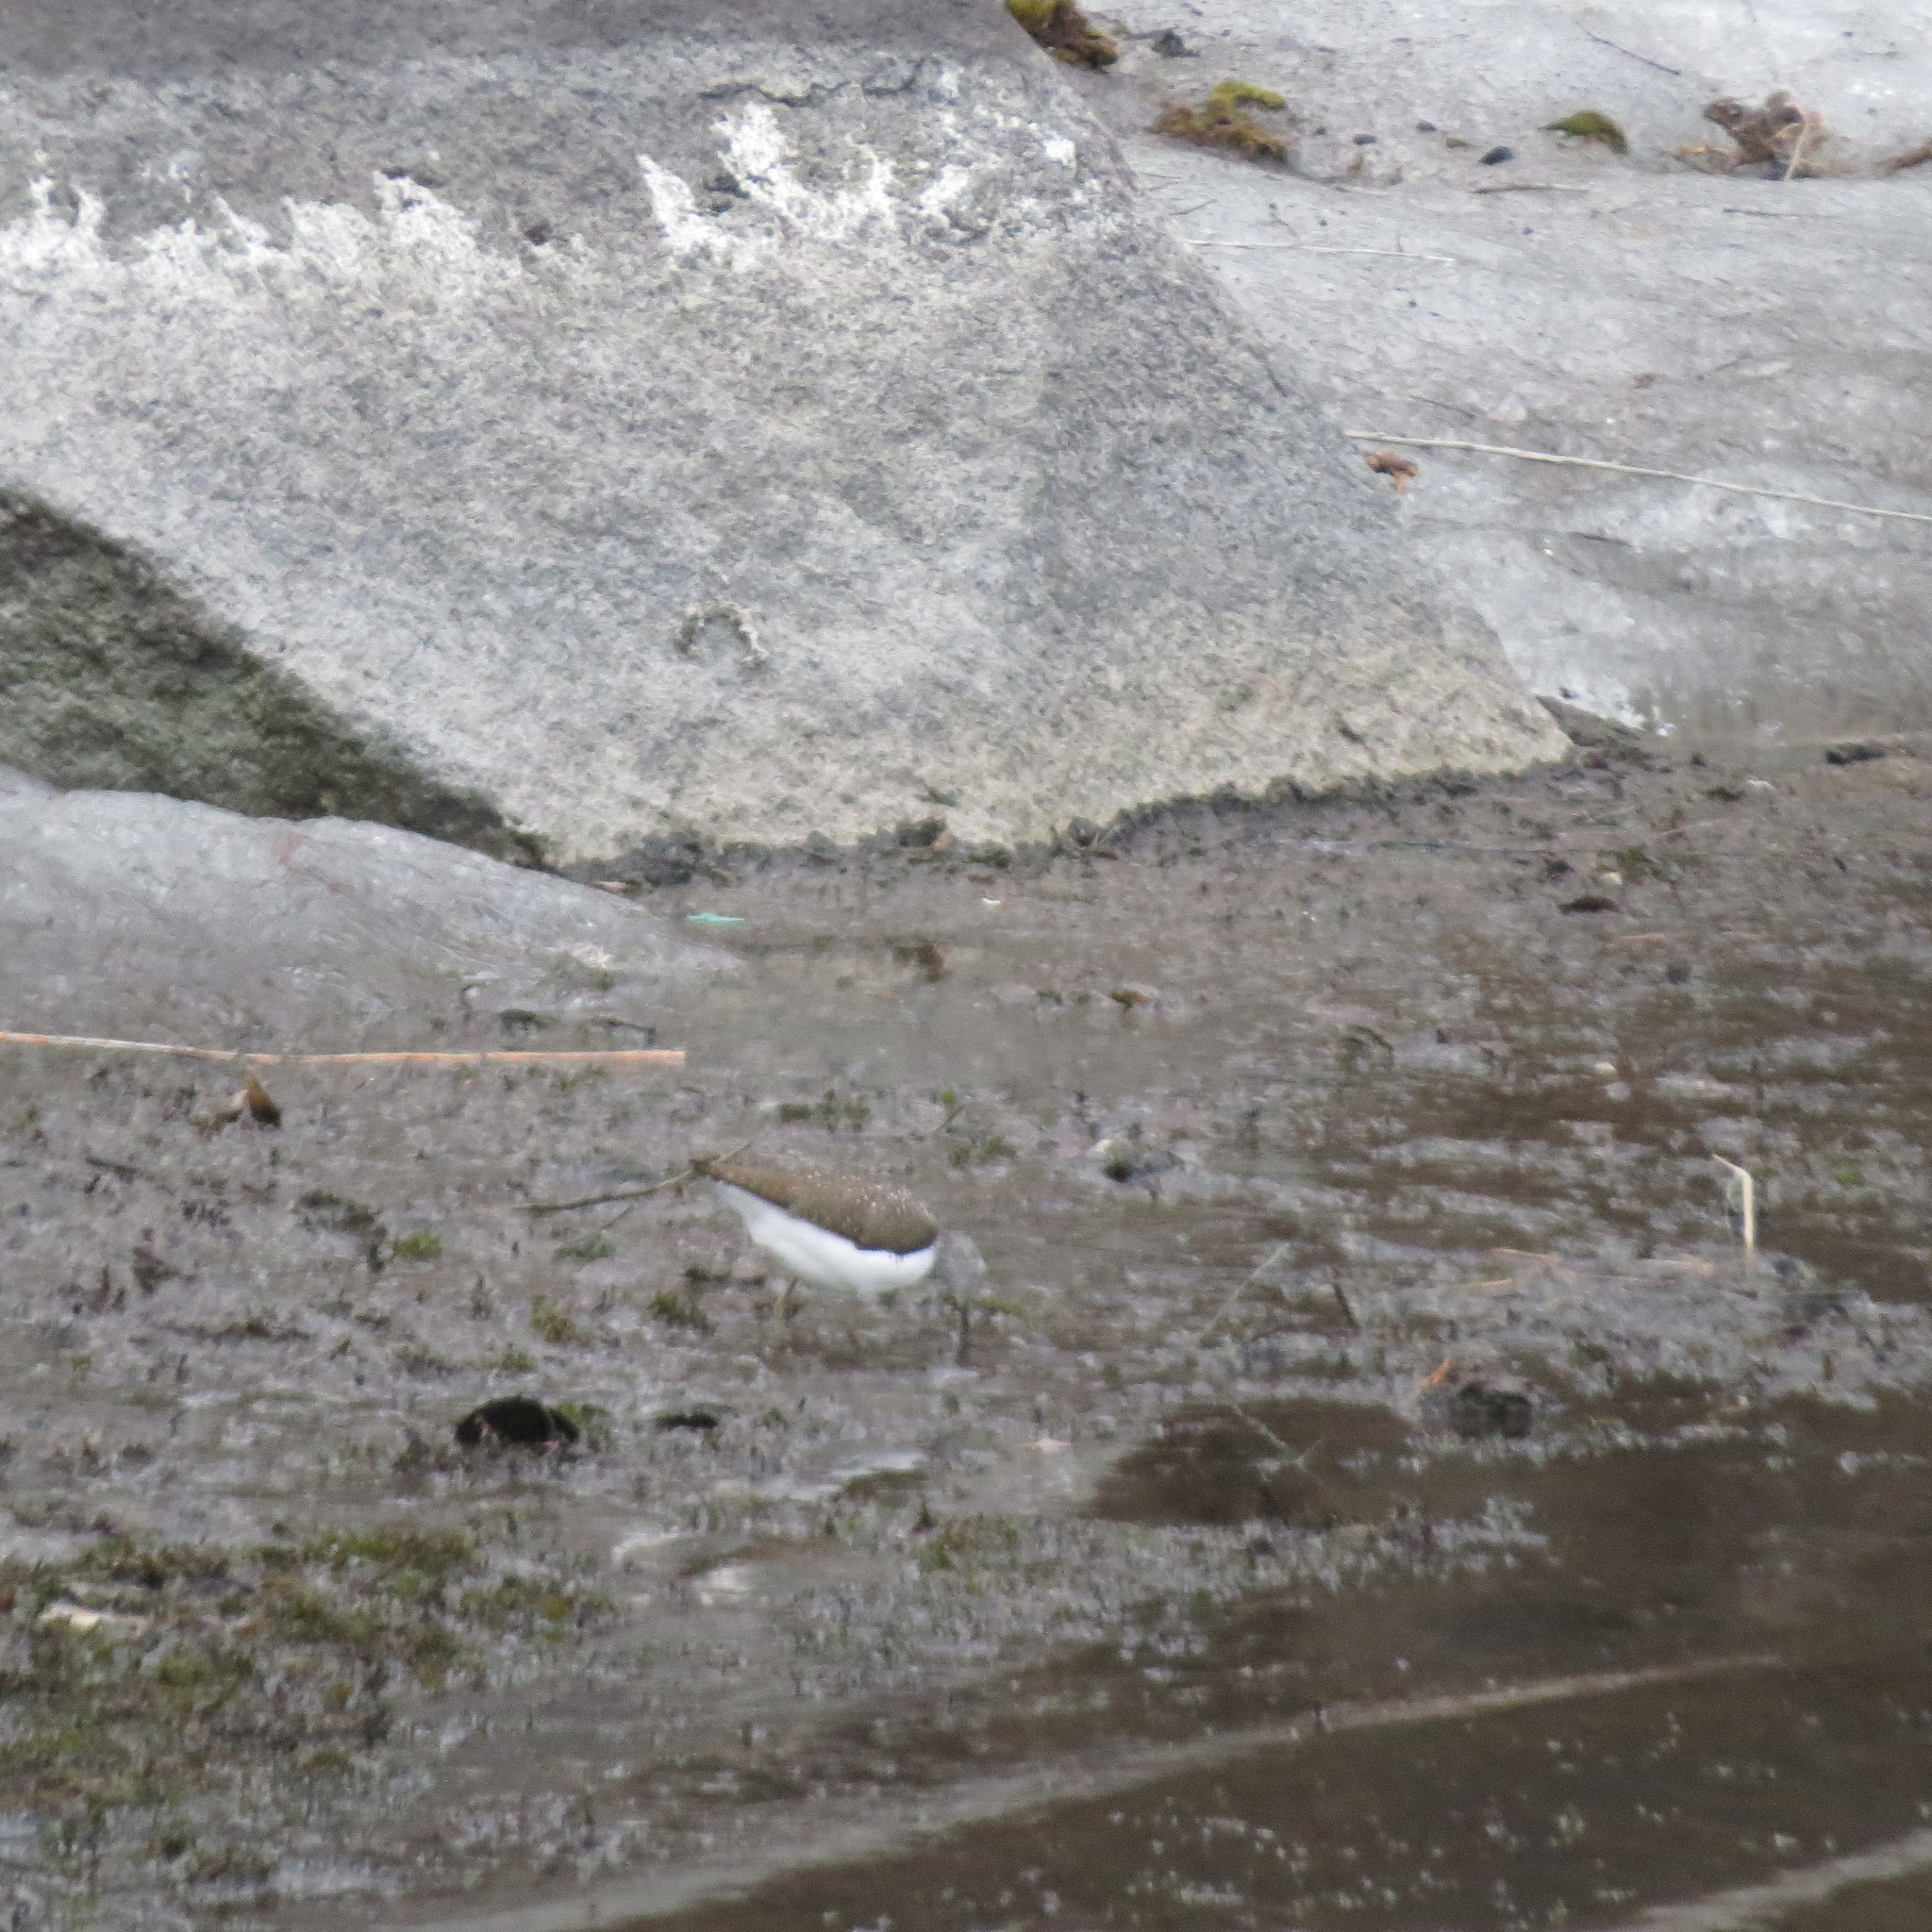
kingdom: Animalia
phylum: Chordata
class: Aves
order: Charadriiformes
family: Scolopacidae
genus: Tringa
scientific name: Tringa ochropus
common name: Green sandpiper
